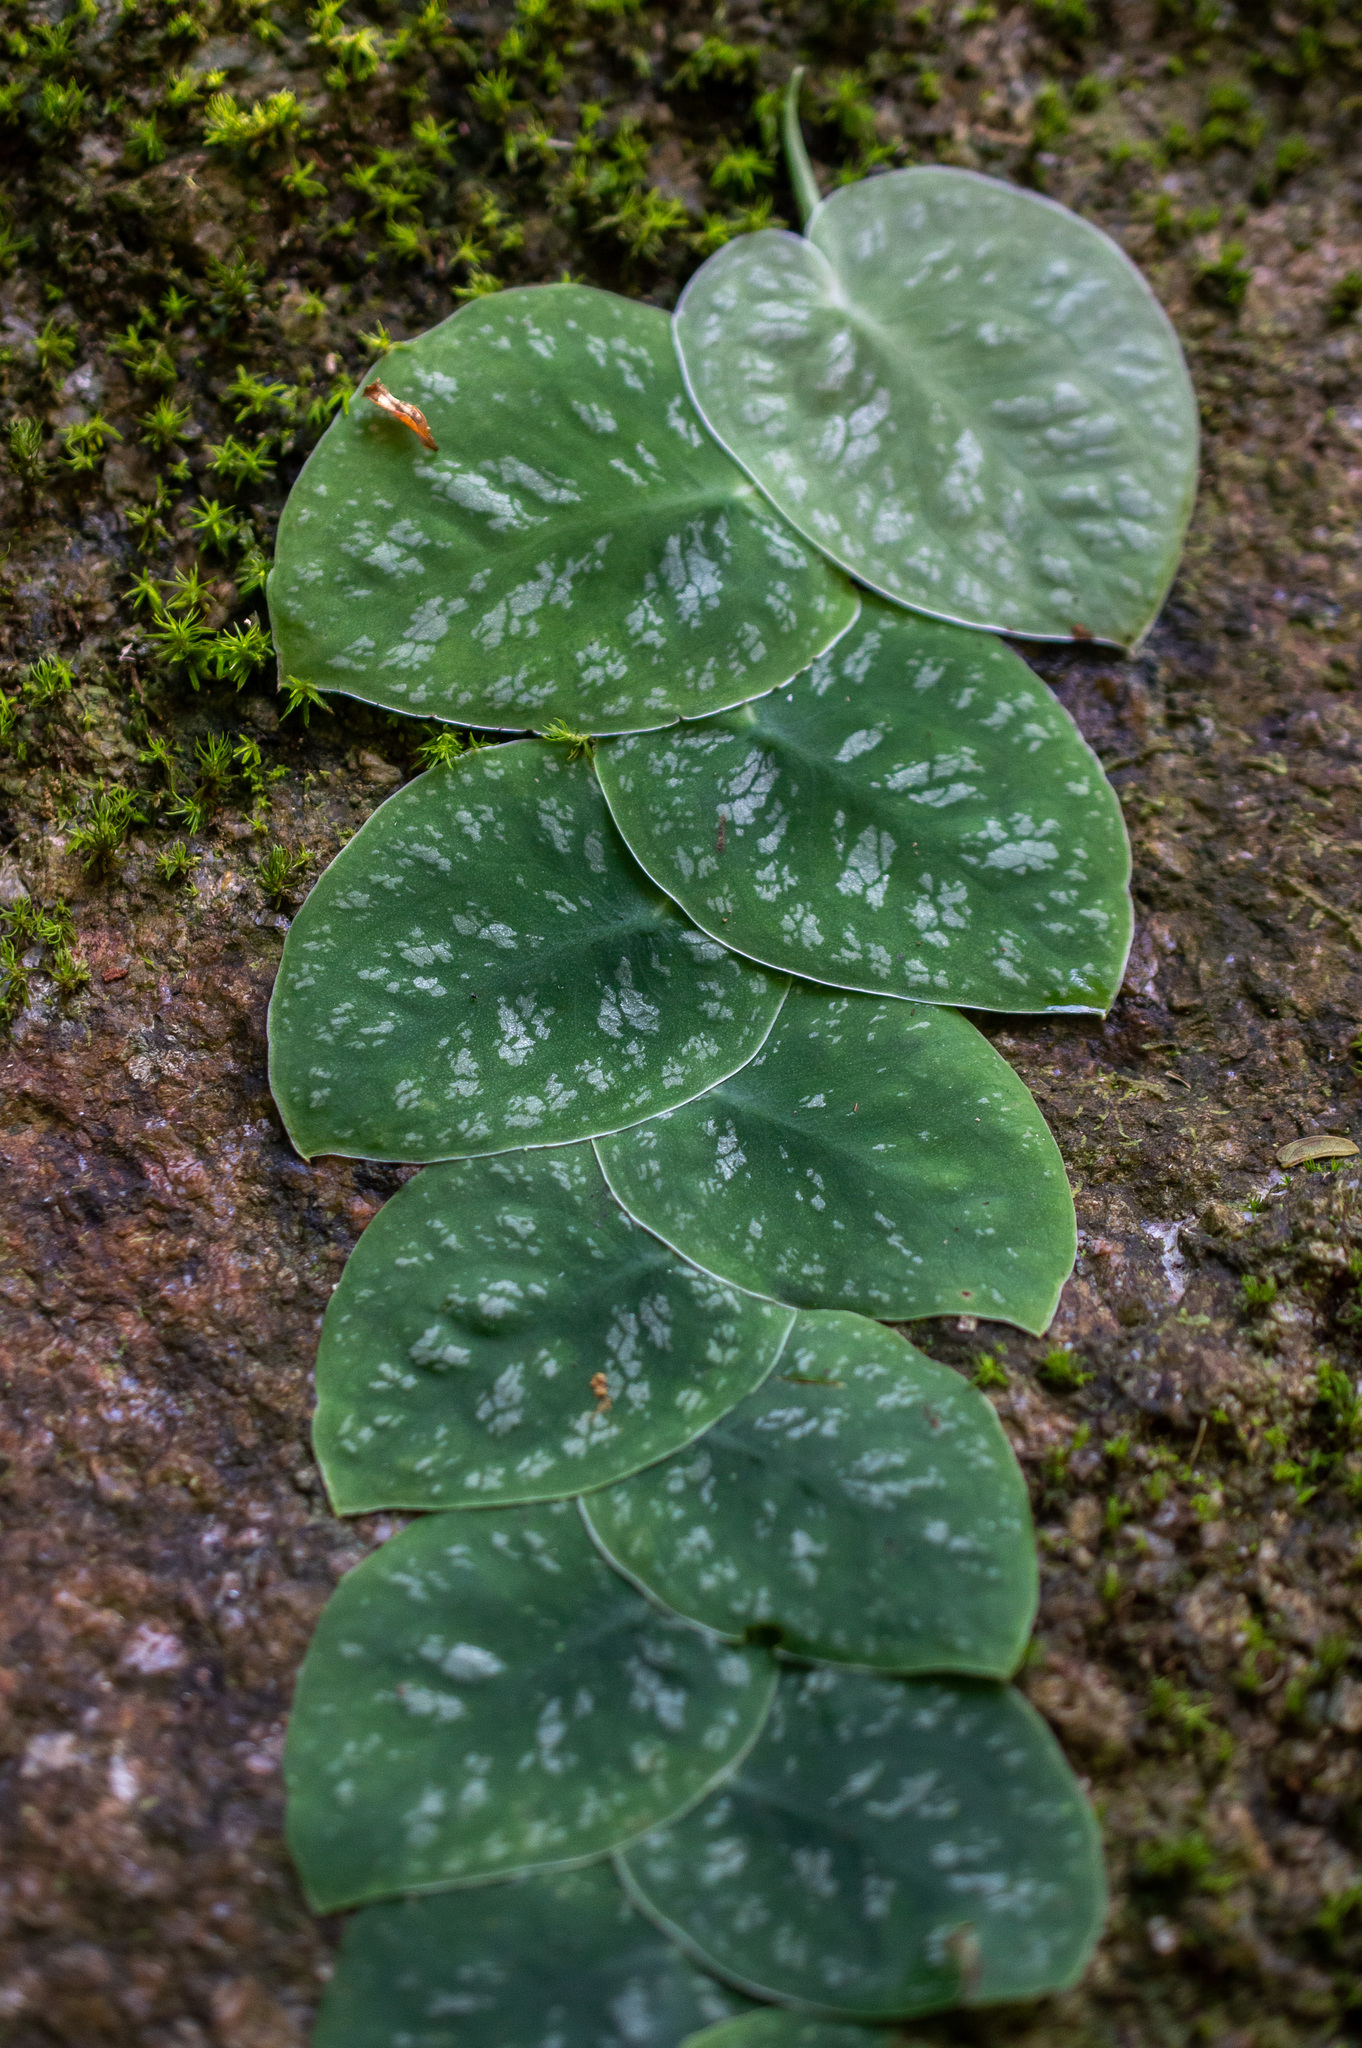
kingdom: Plantae
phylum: Tracheophyta
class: Liliopsida
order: Alismatales
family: Araceae
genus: Monstera
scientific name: Monstera dubia
